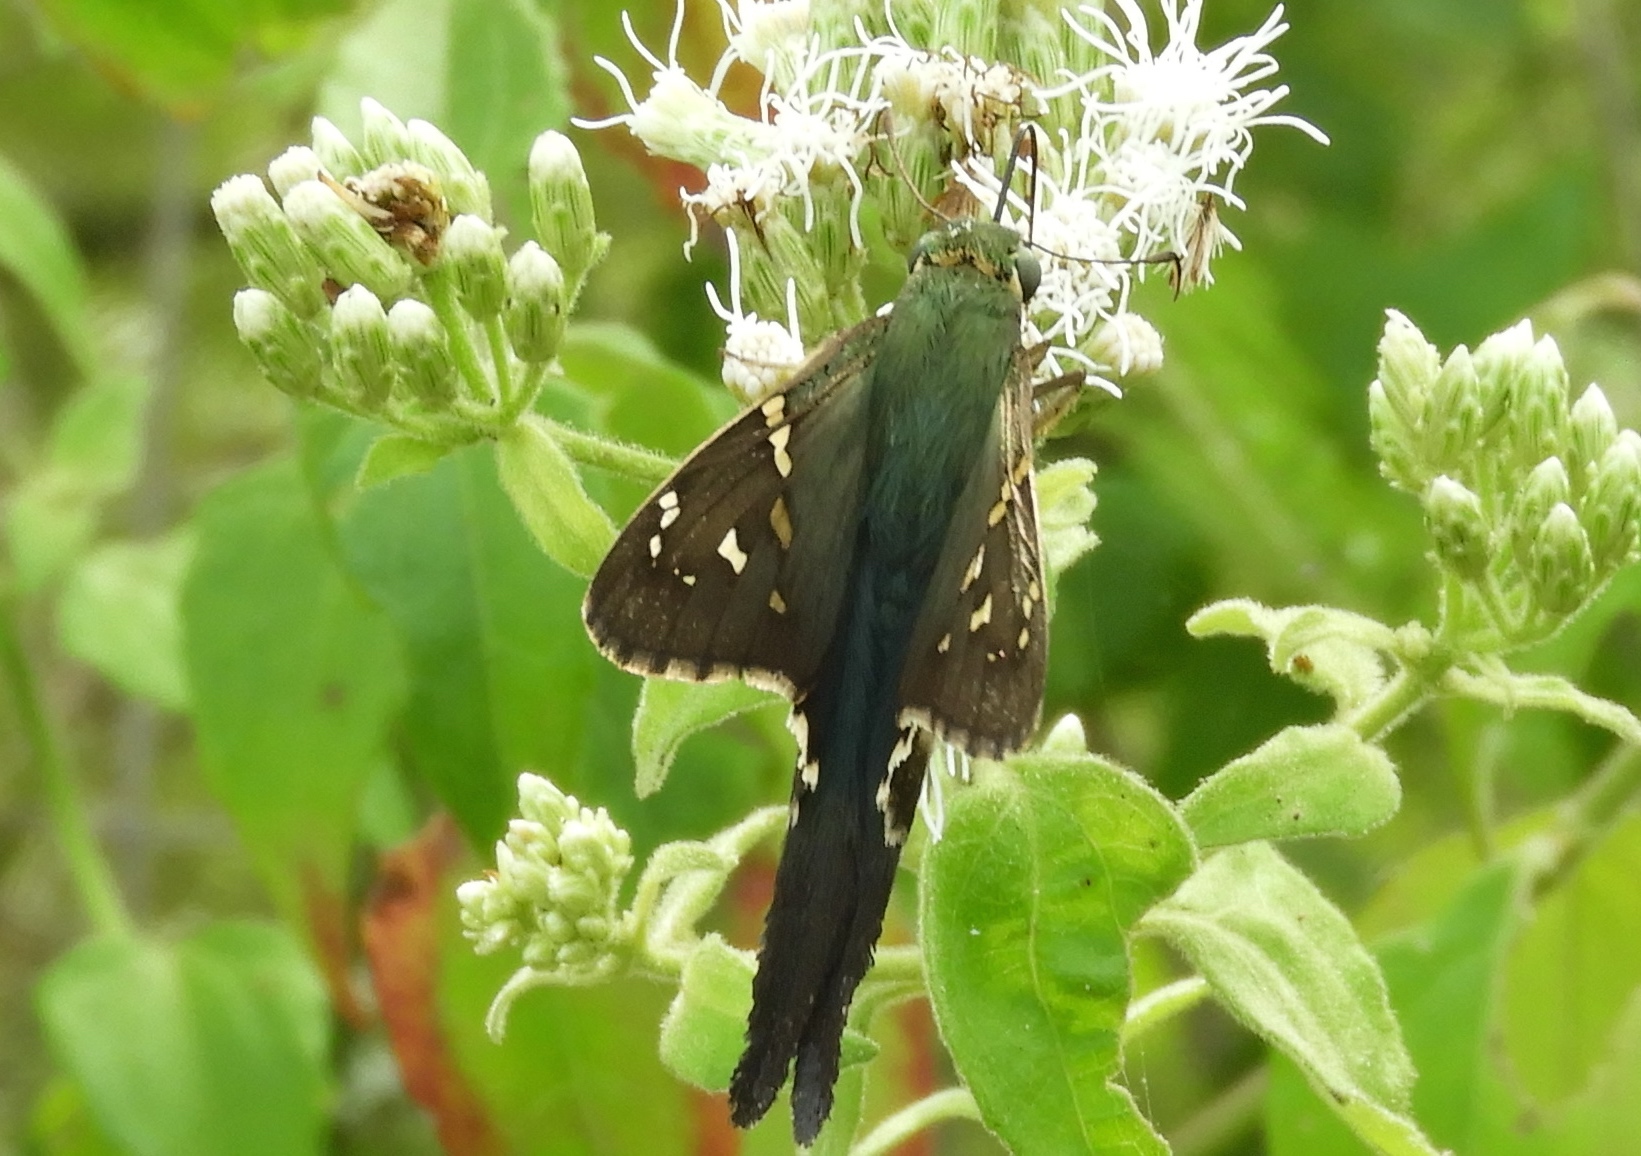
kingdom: Animalia
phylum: Arthropoda
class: Insecta
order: Lepidoptera
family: Hesperiidae
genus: Urbanus
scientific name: Urbanus proteus
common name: Long-tailed skipper
